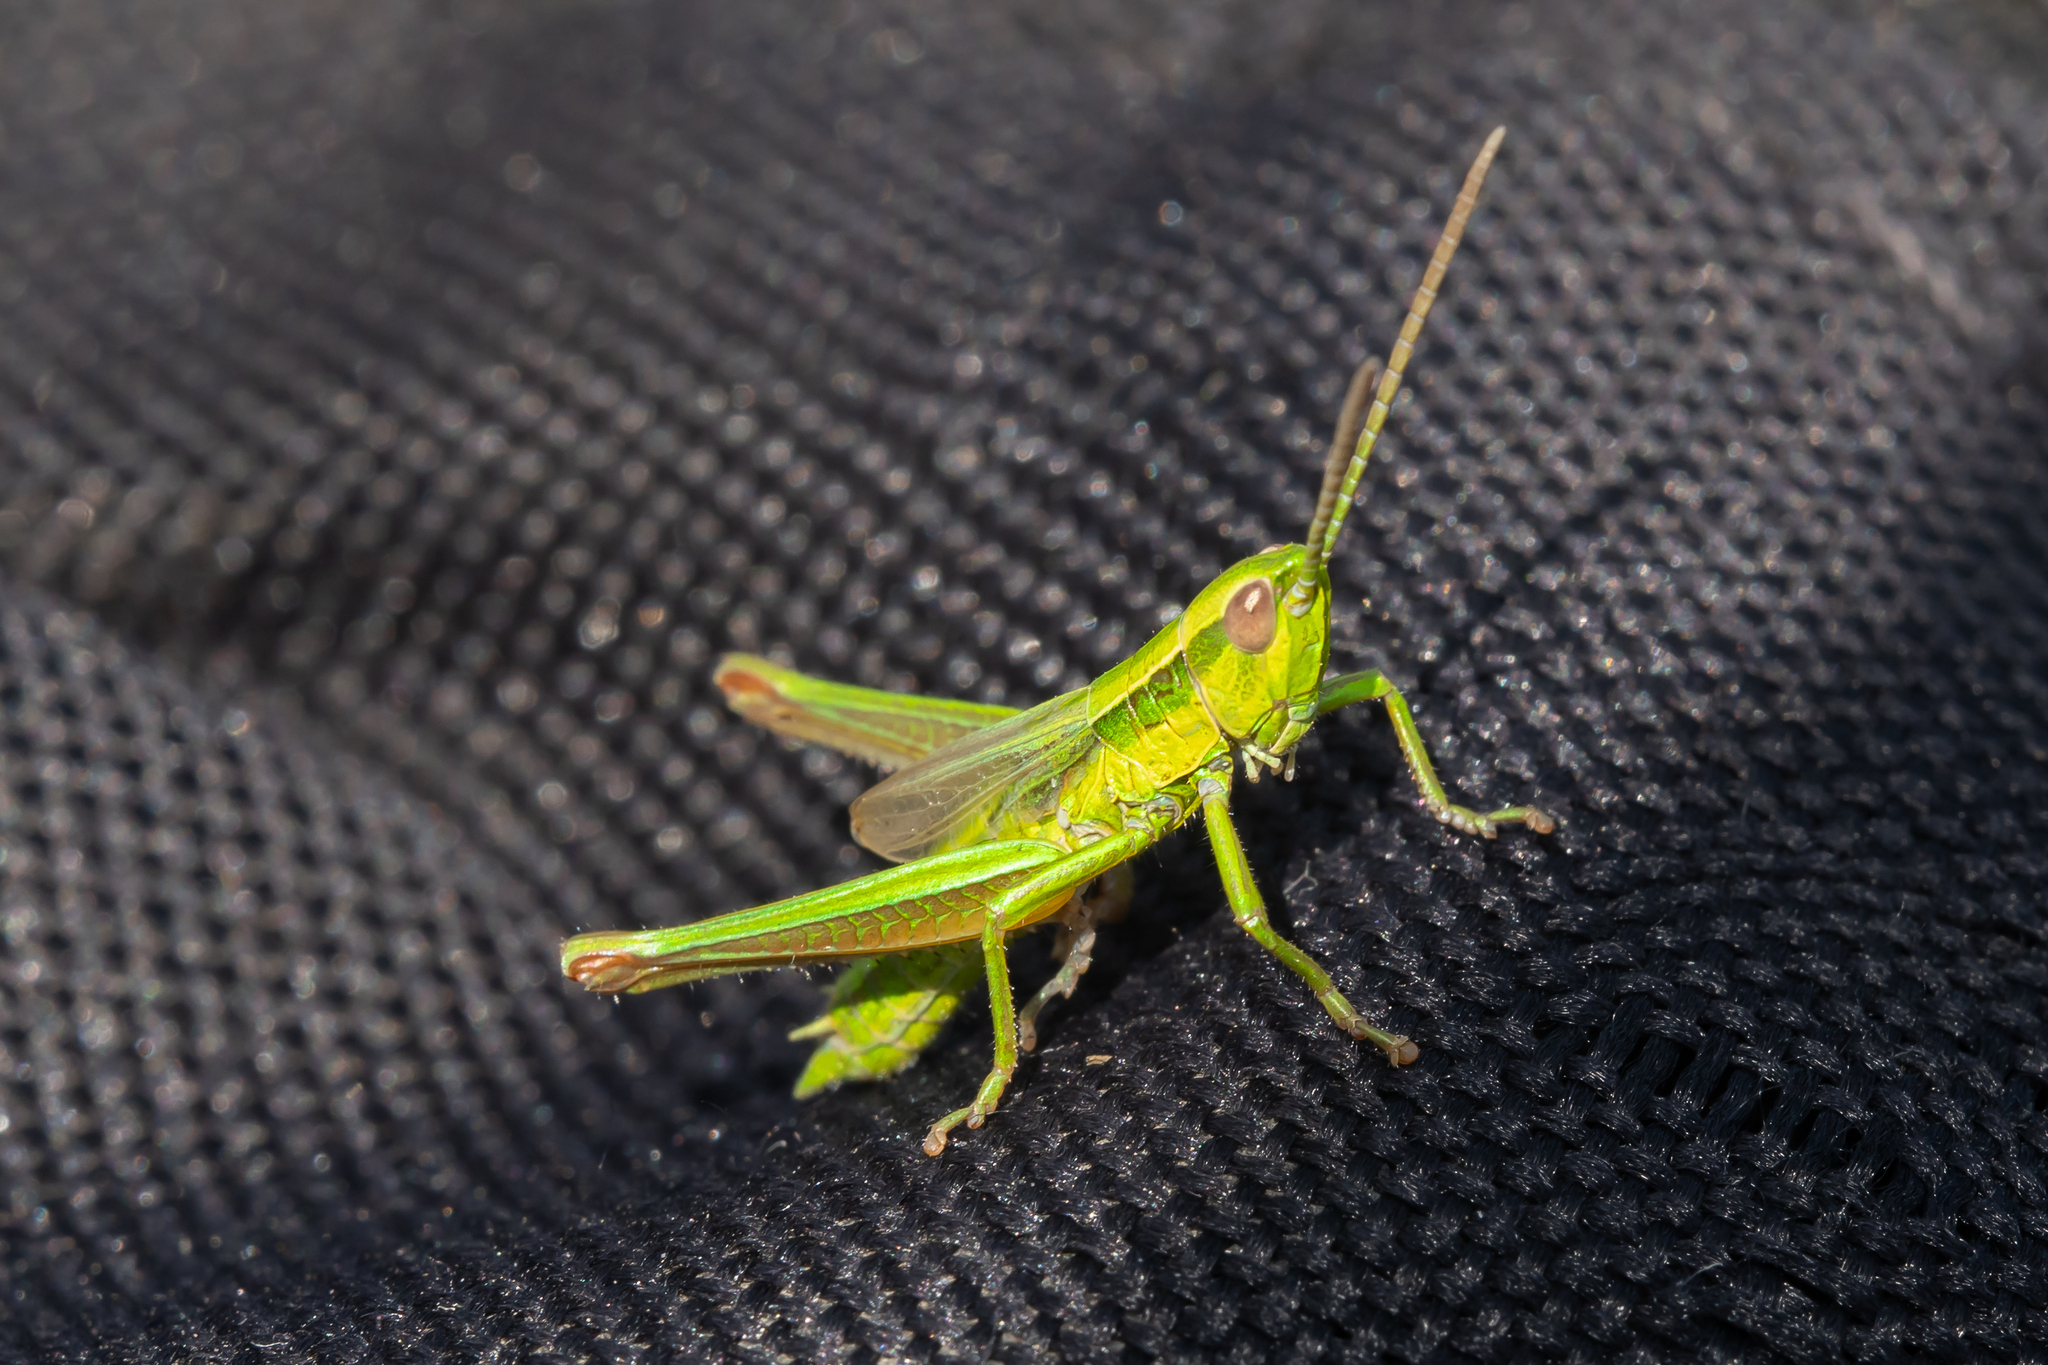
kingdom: Animalia
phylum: Arthropoda
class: Insecta
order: Orthoptera
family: Acrididae
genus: Euthystira
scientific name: Euthystira brachyptera
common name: Small gold grasshopper
